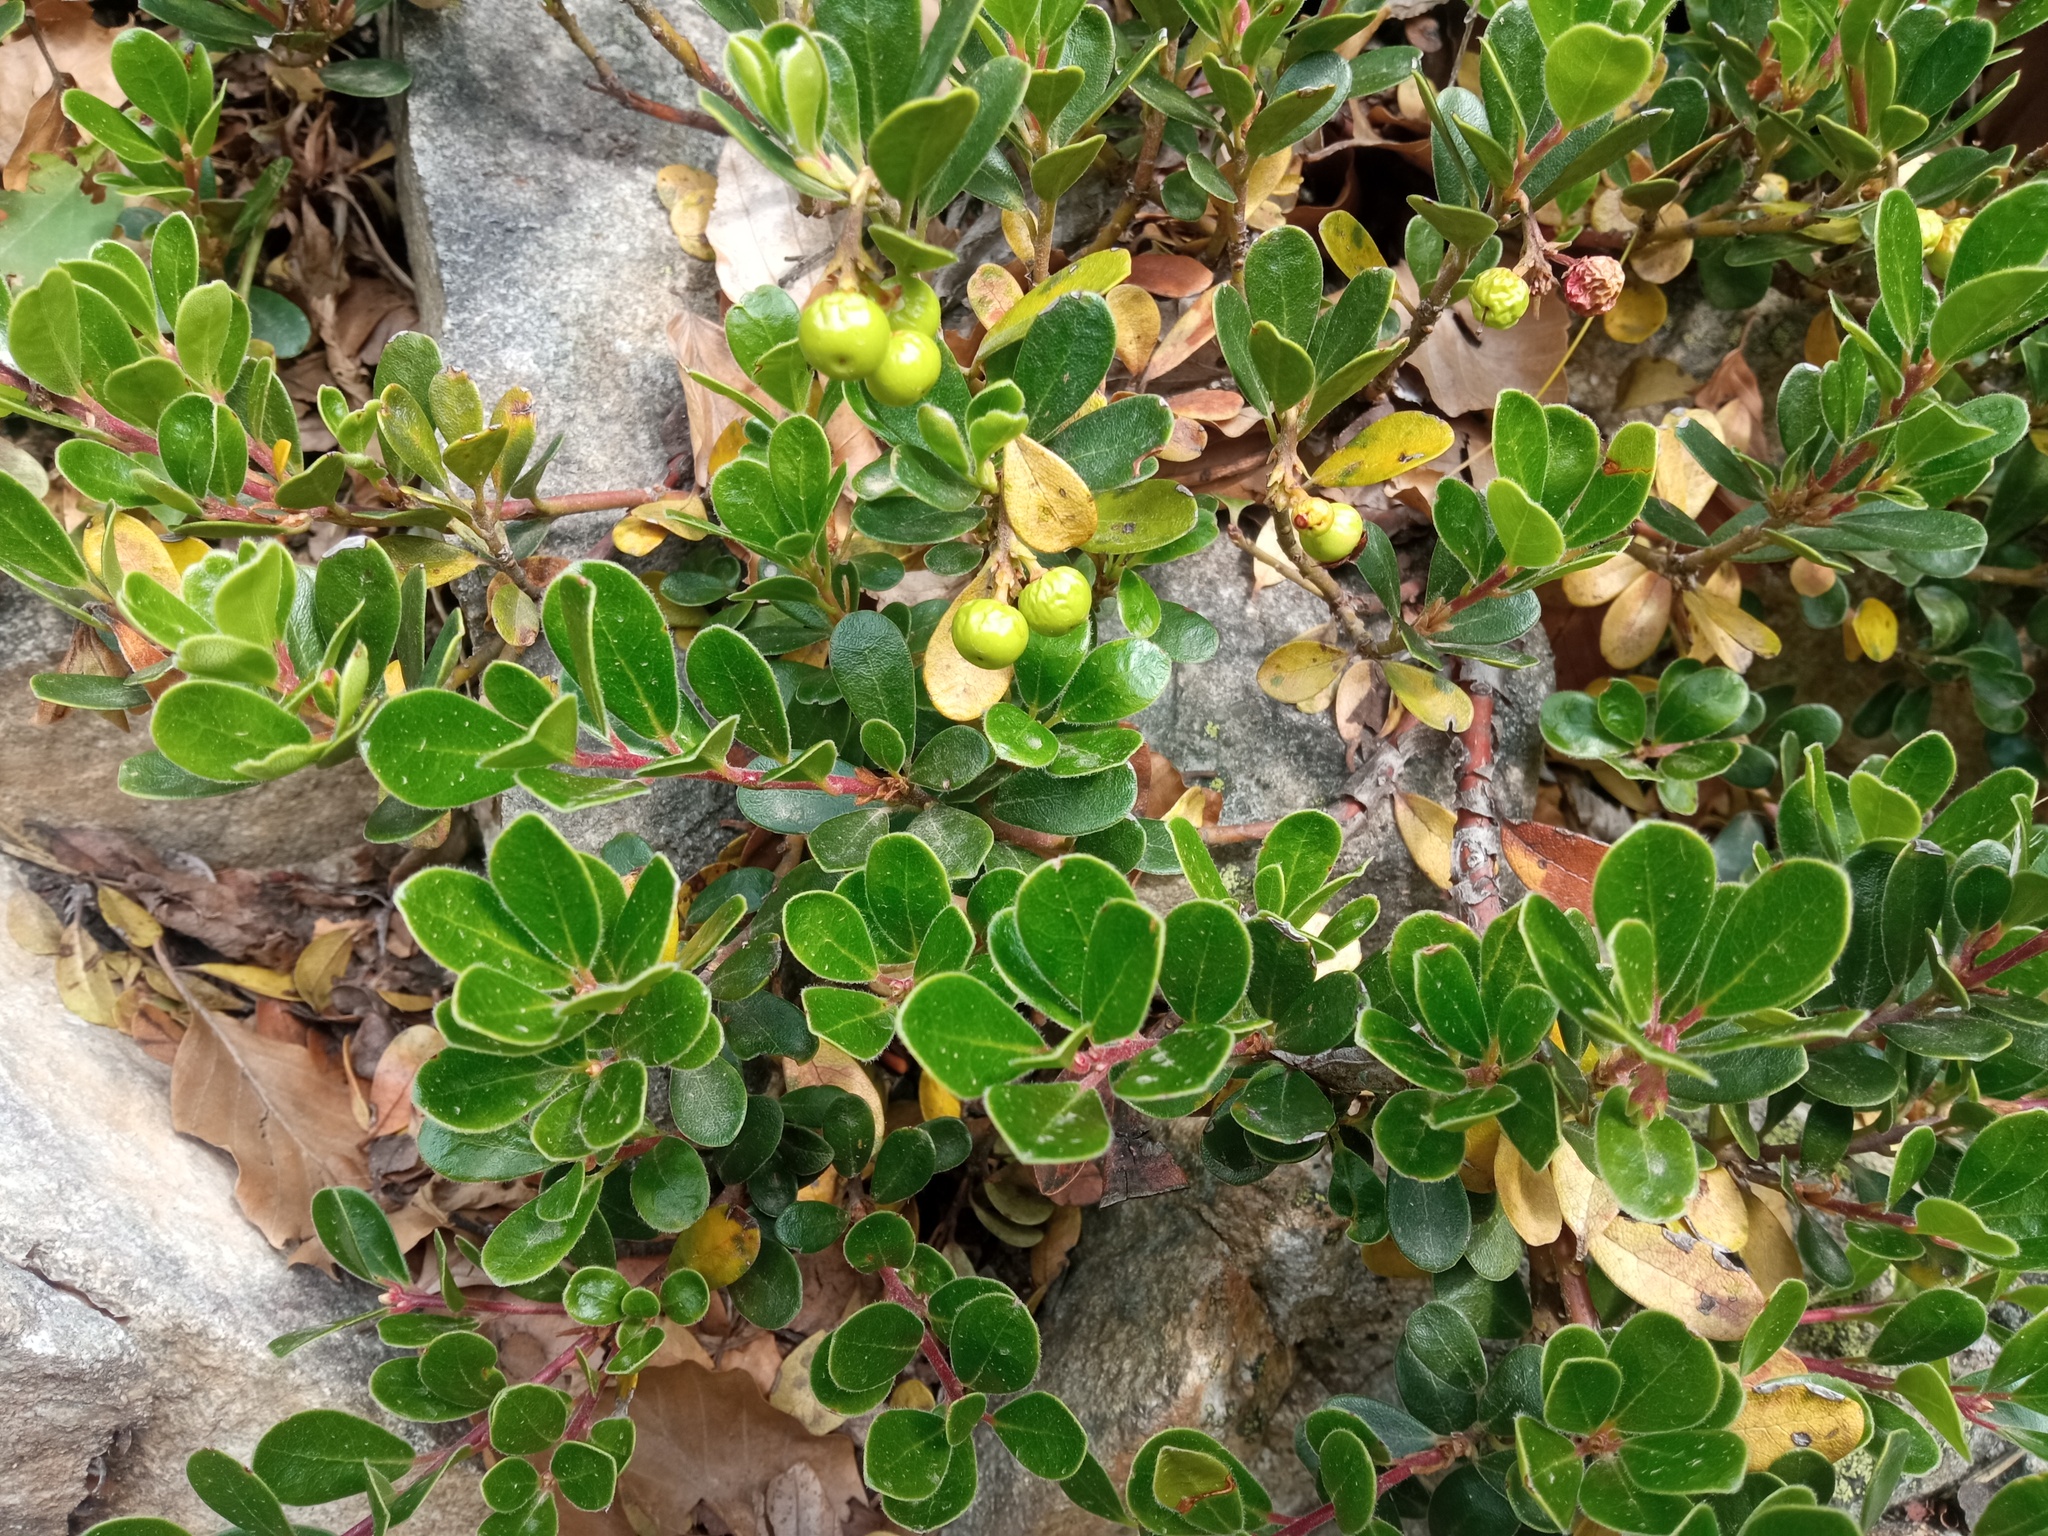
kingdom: Plantae
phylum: Tracheophyta
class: Magnoliopsida
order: Ericales
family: Ericaceae
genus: Arctostaphylos
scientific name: Arctostaphylos uva-ursi
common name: Bearberry
